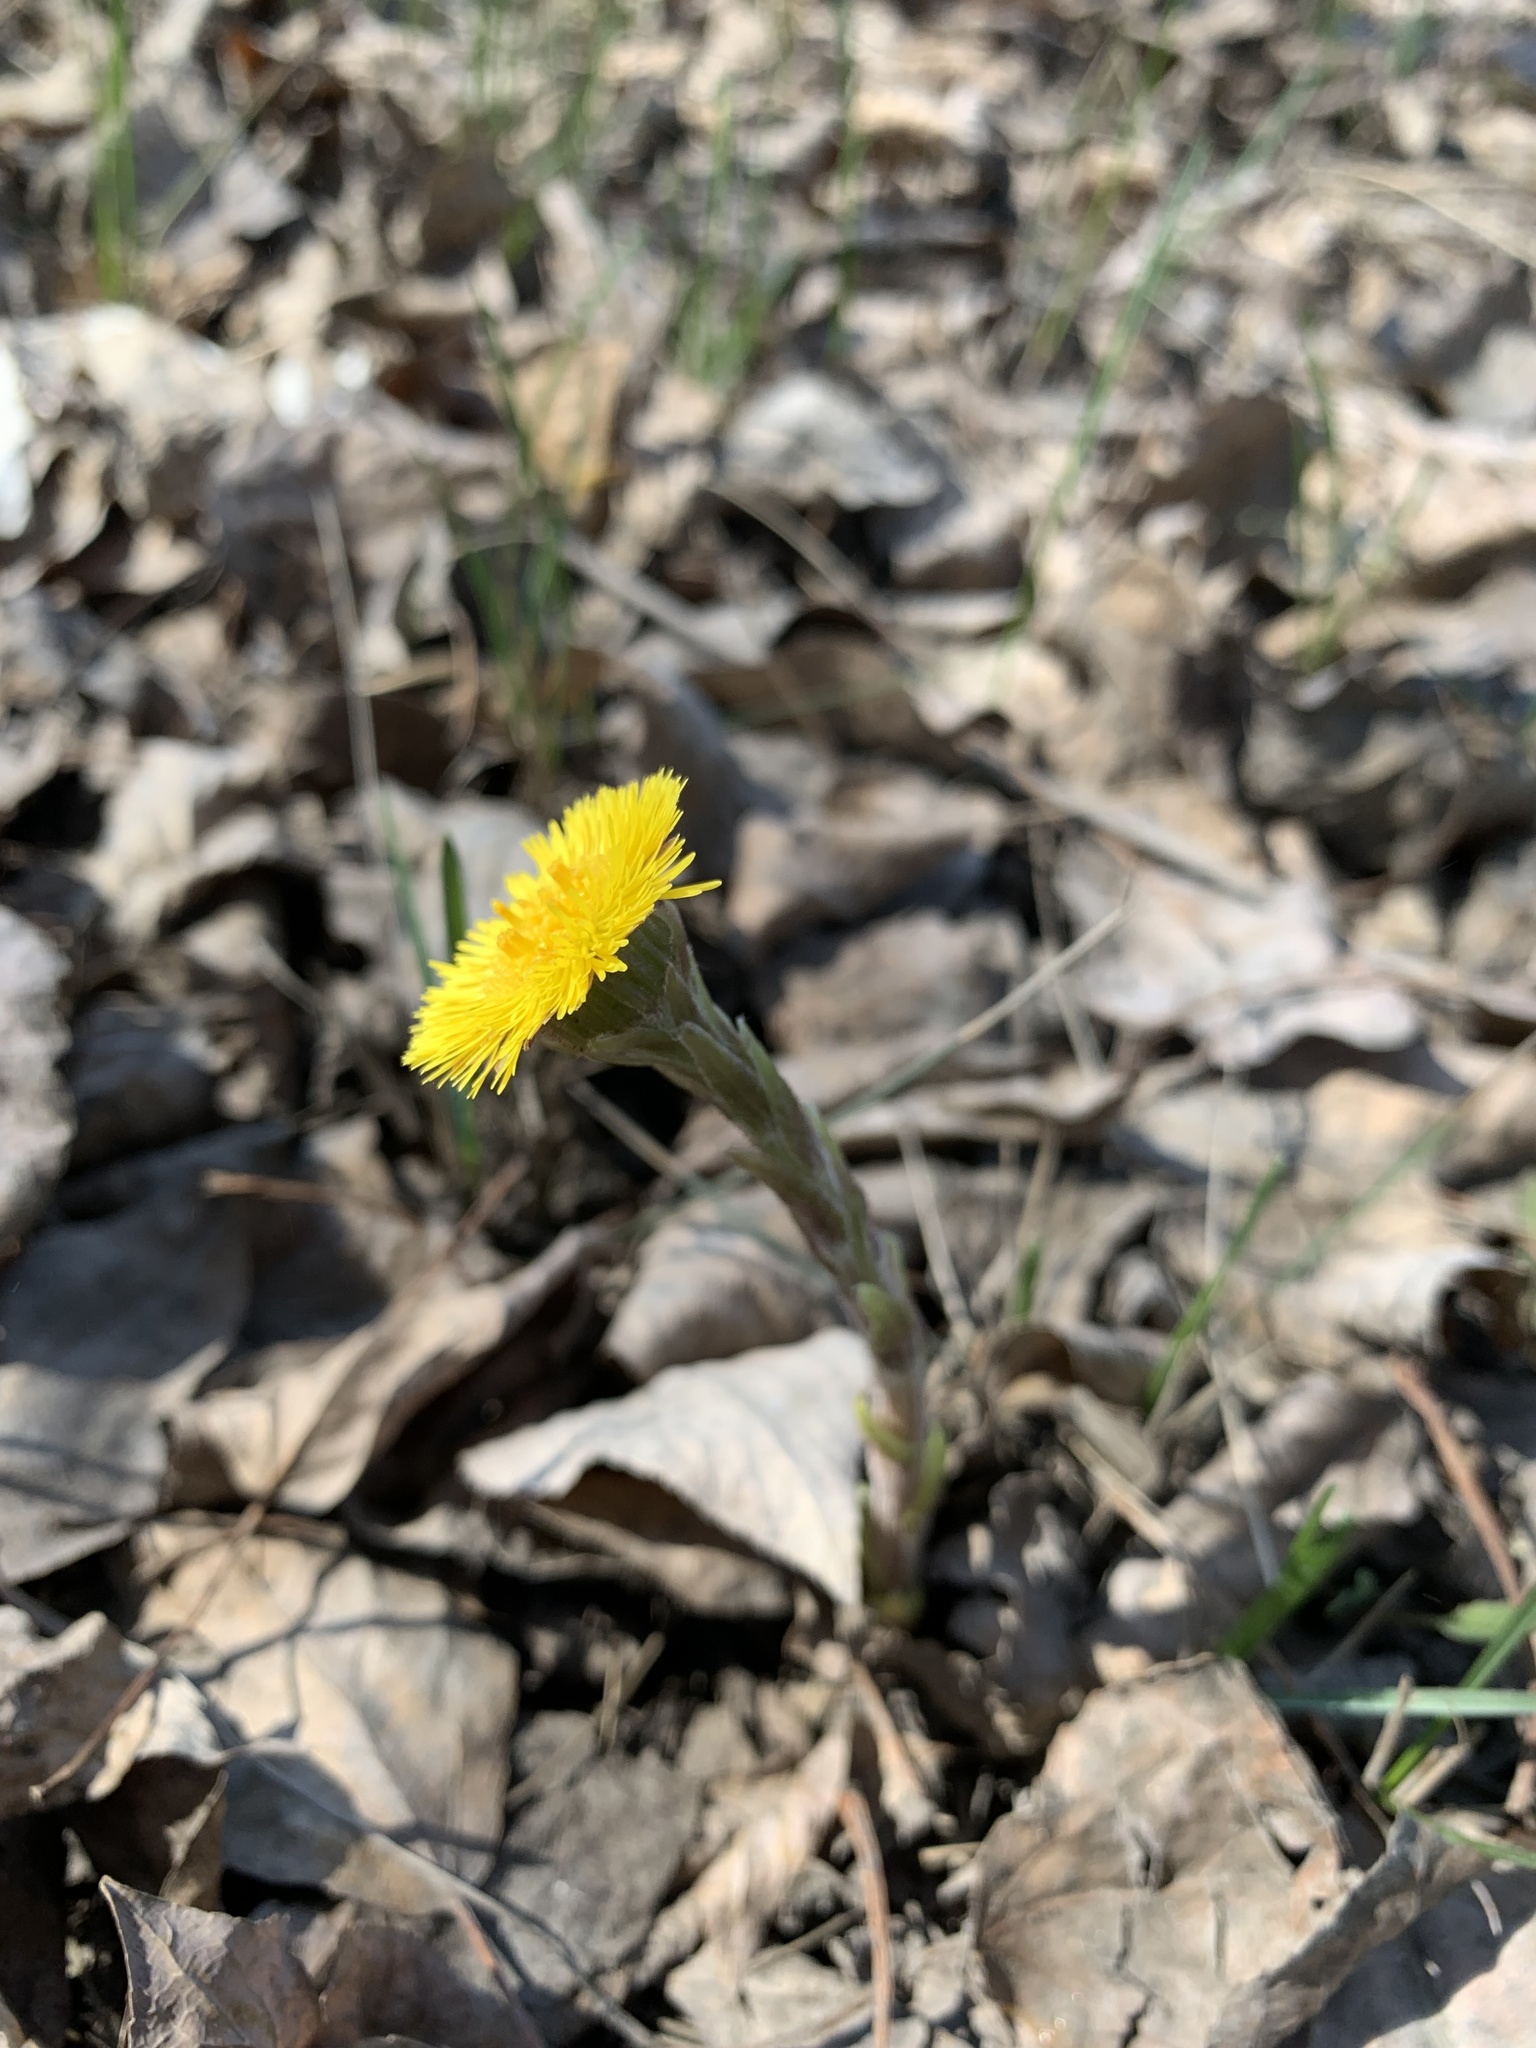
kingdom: Plantae
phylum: Tracheophyta
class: Magnoliopsida
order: Asterales
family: Asteraceae
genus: Tussilago
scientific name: Tussilago farfara
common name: Coltsfoot
